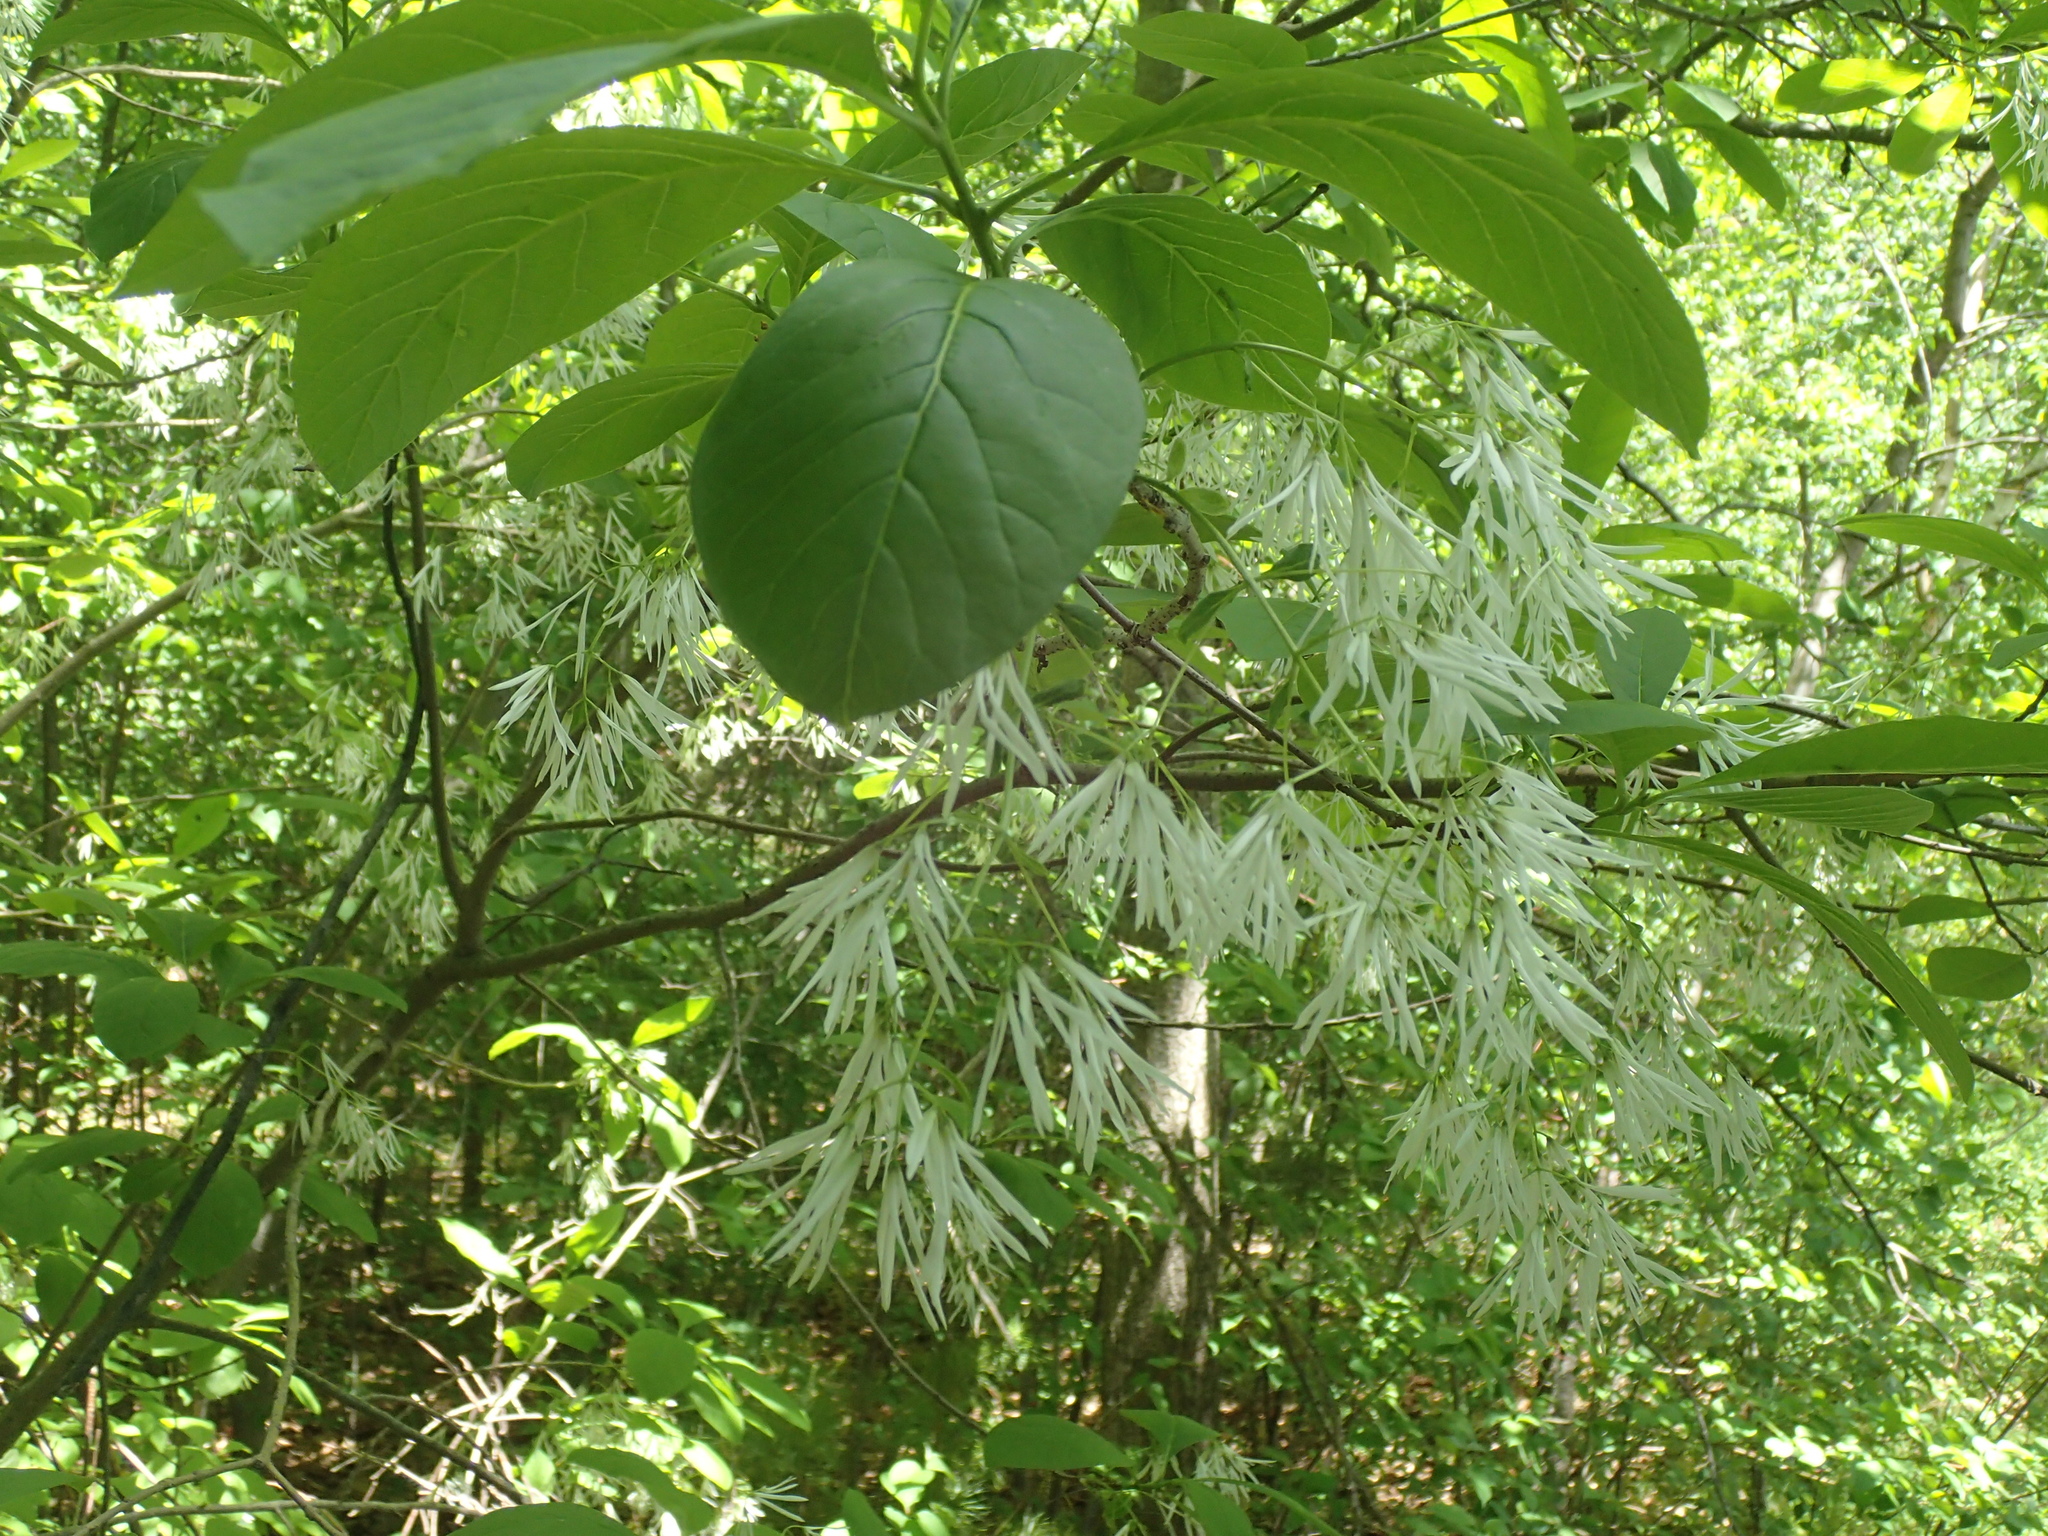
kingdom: Plantae
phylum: Tracheophyta
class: Magnoliopsida
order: Lamiales
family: Oleaceae
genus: Chionanthus
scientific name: Chionanthus virginicus
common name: American fringetree
